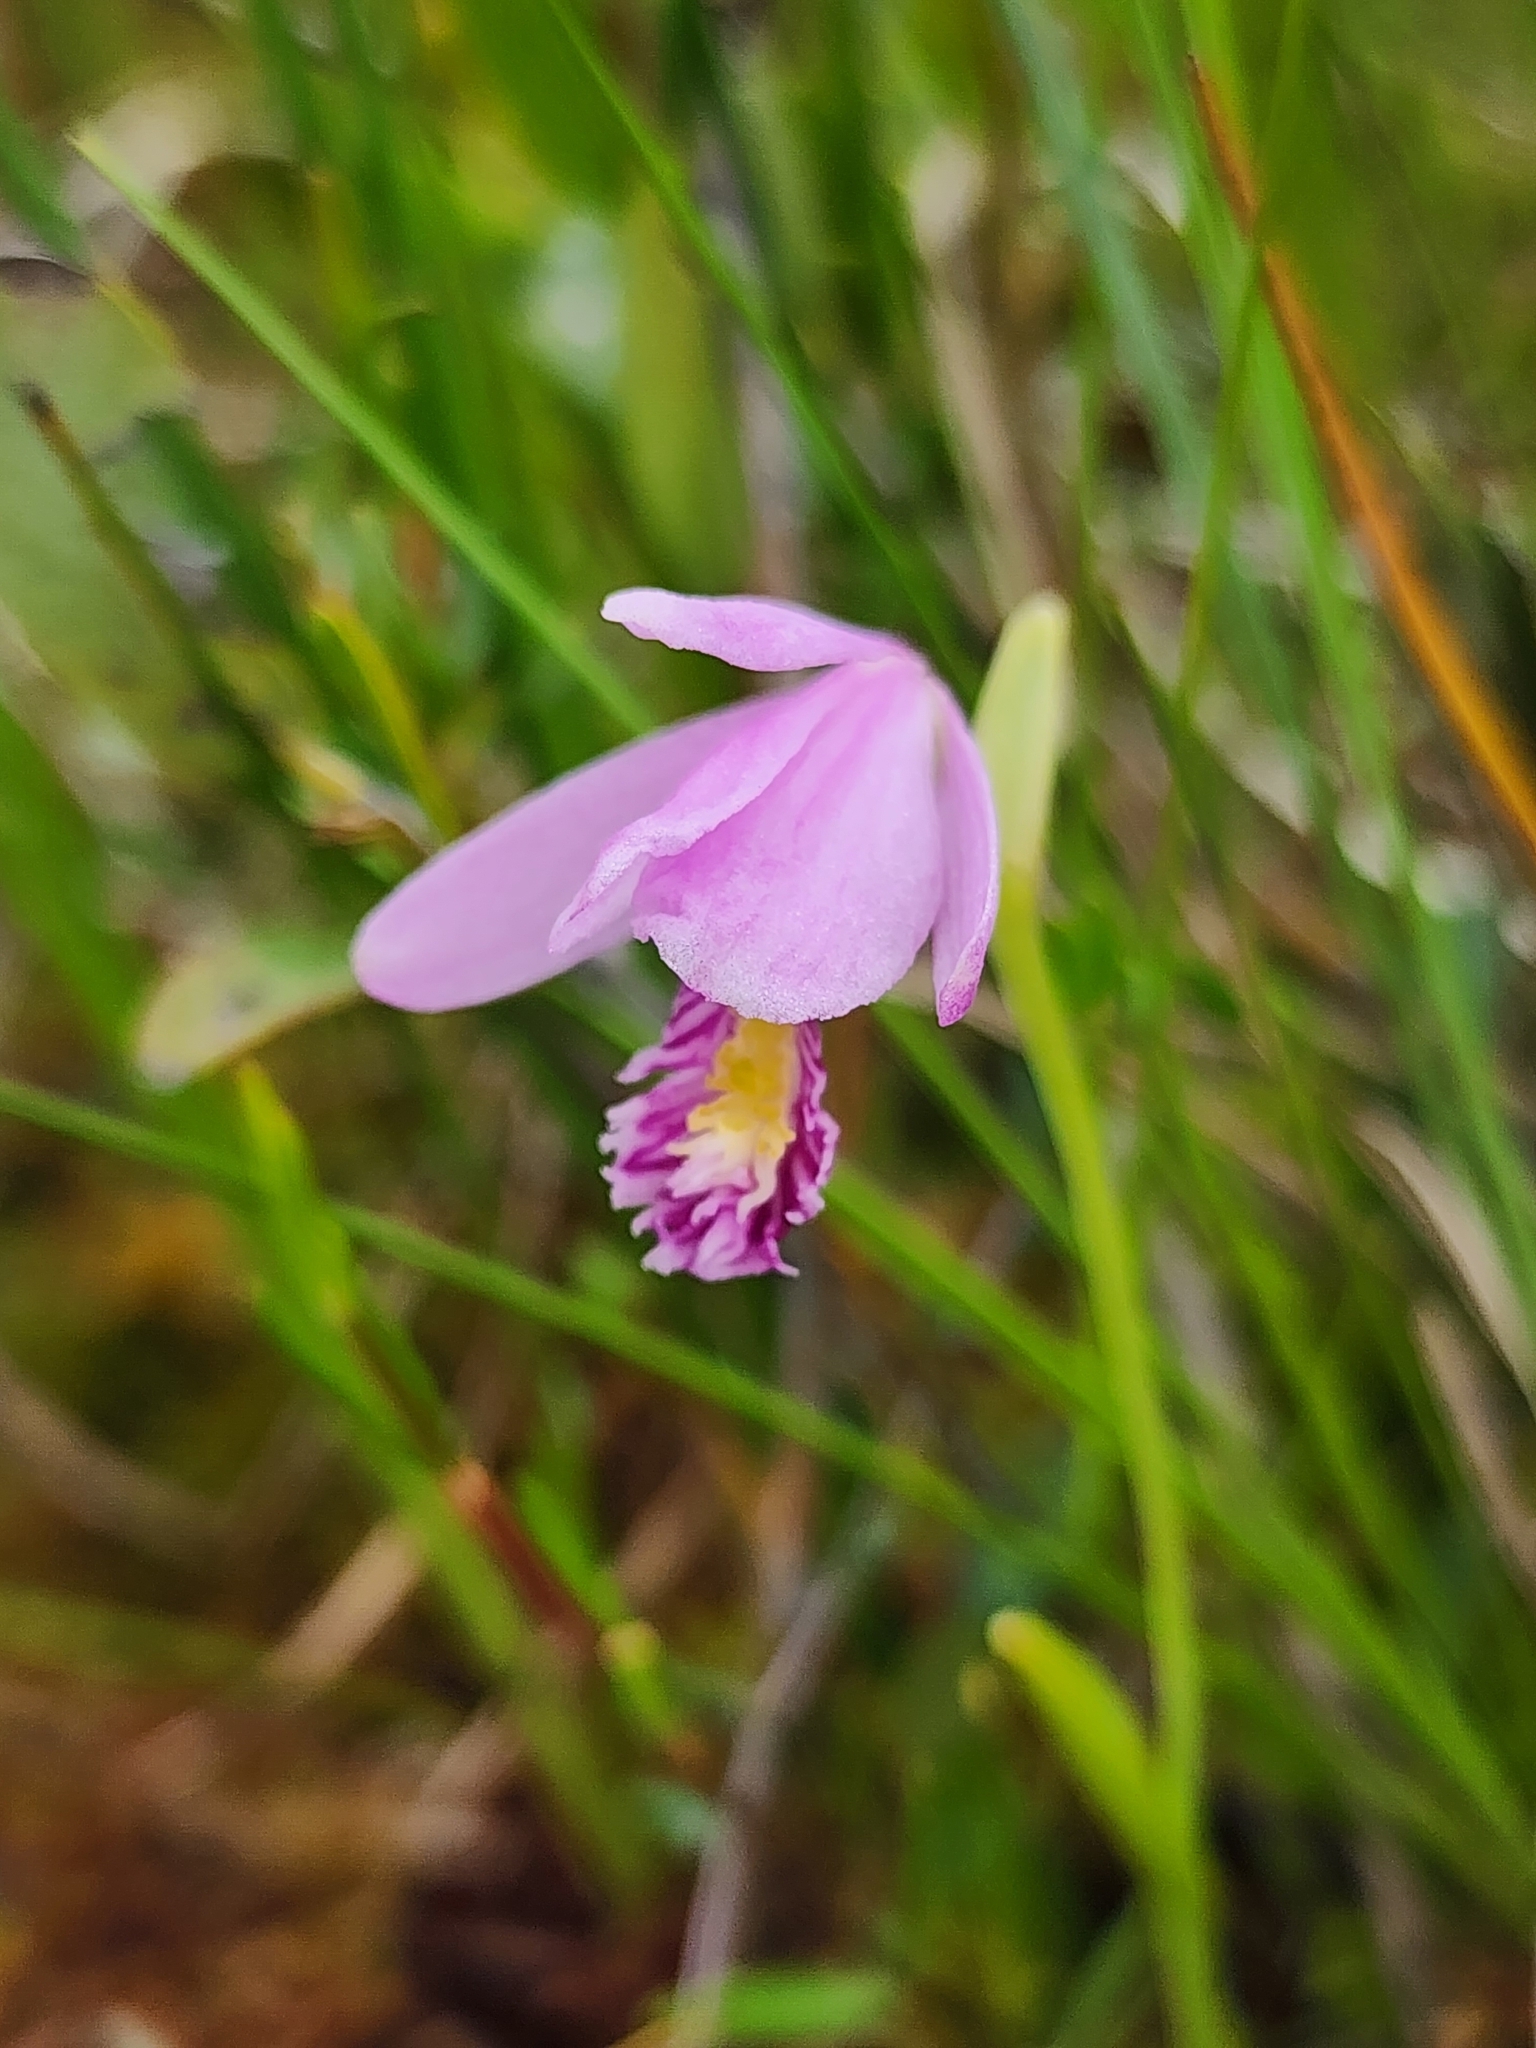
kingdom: Plantae
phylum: Tracheophyta
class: Liliopsida
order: Asparagales
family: Orchidaceae
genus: Pogonia
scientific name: Pogonia ophioglossoides
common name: Rose pogonia
